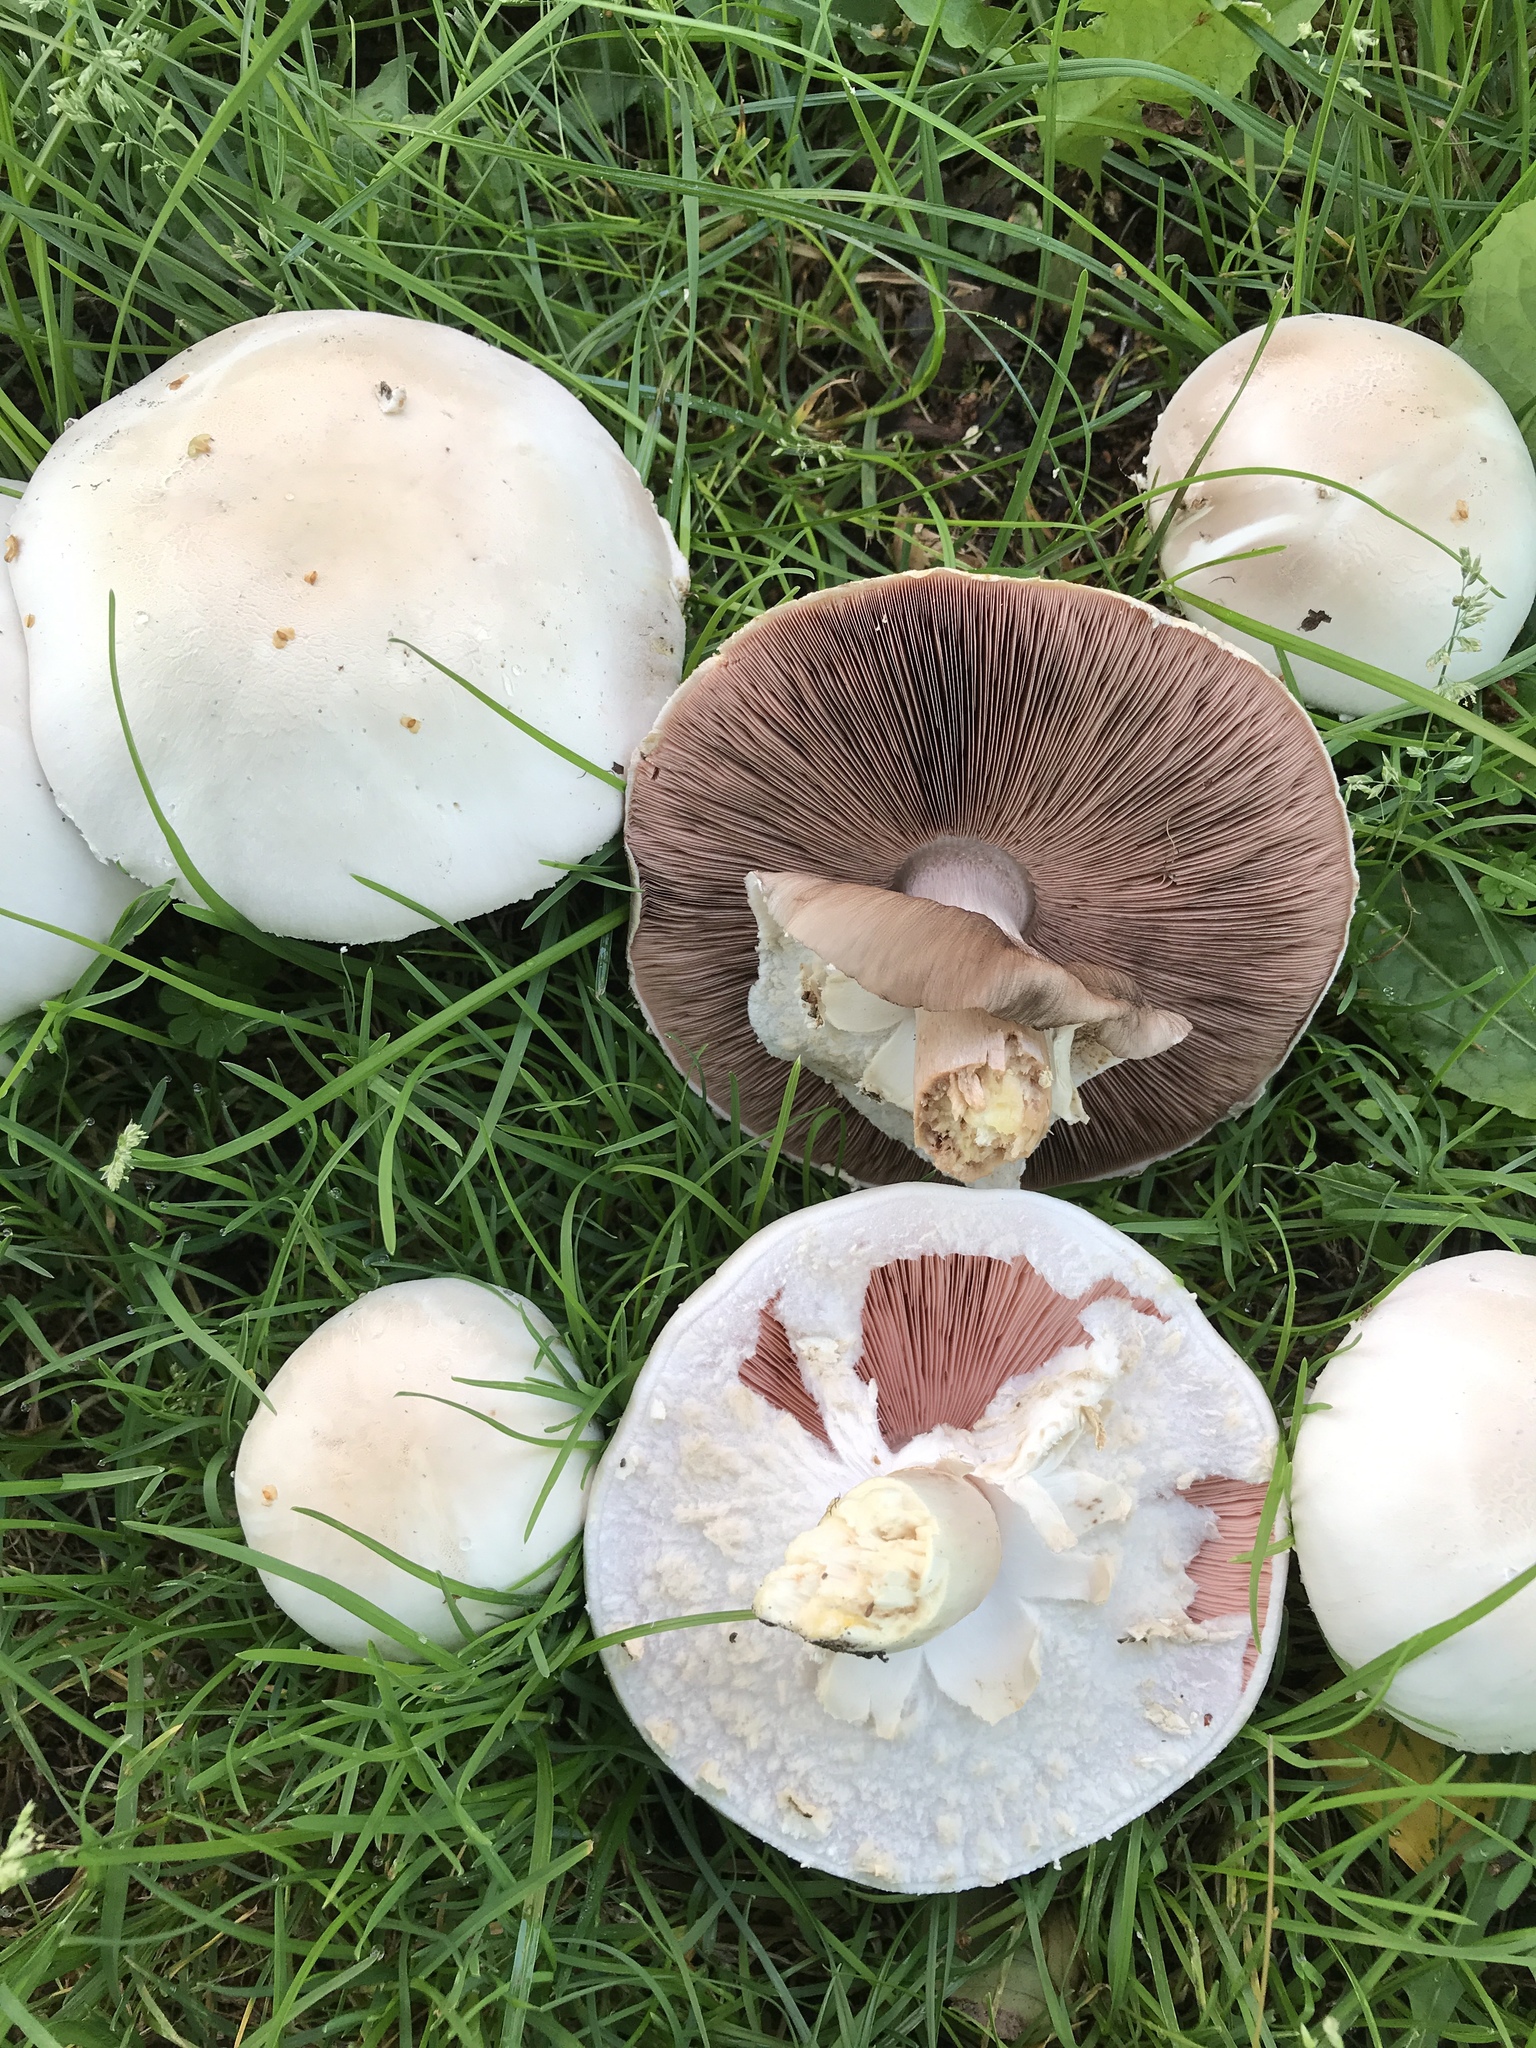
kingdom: Fungi
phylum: Basidiomycota
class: Agaricomycetes
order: Agaricales
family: Agaricaceae
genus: Agaricus
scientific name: Agaricus campestris
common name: Field mushroom
